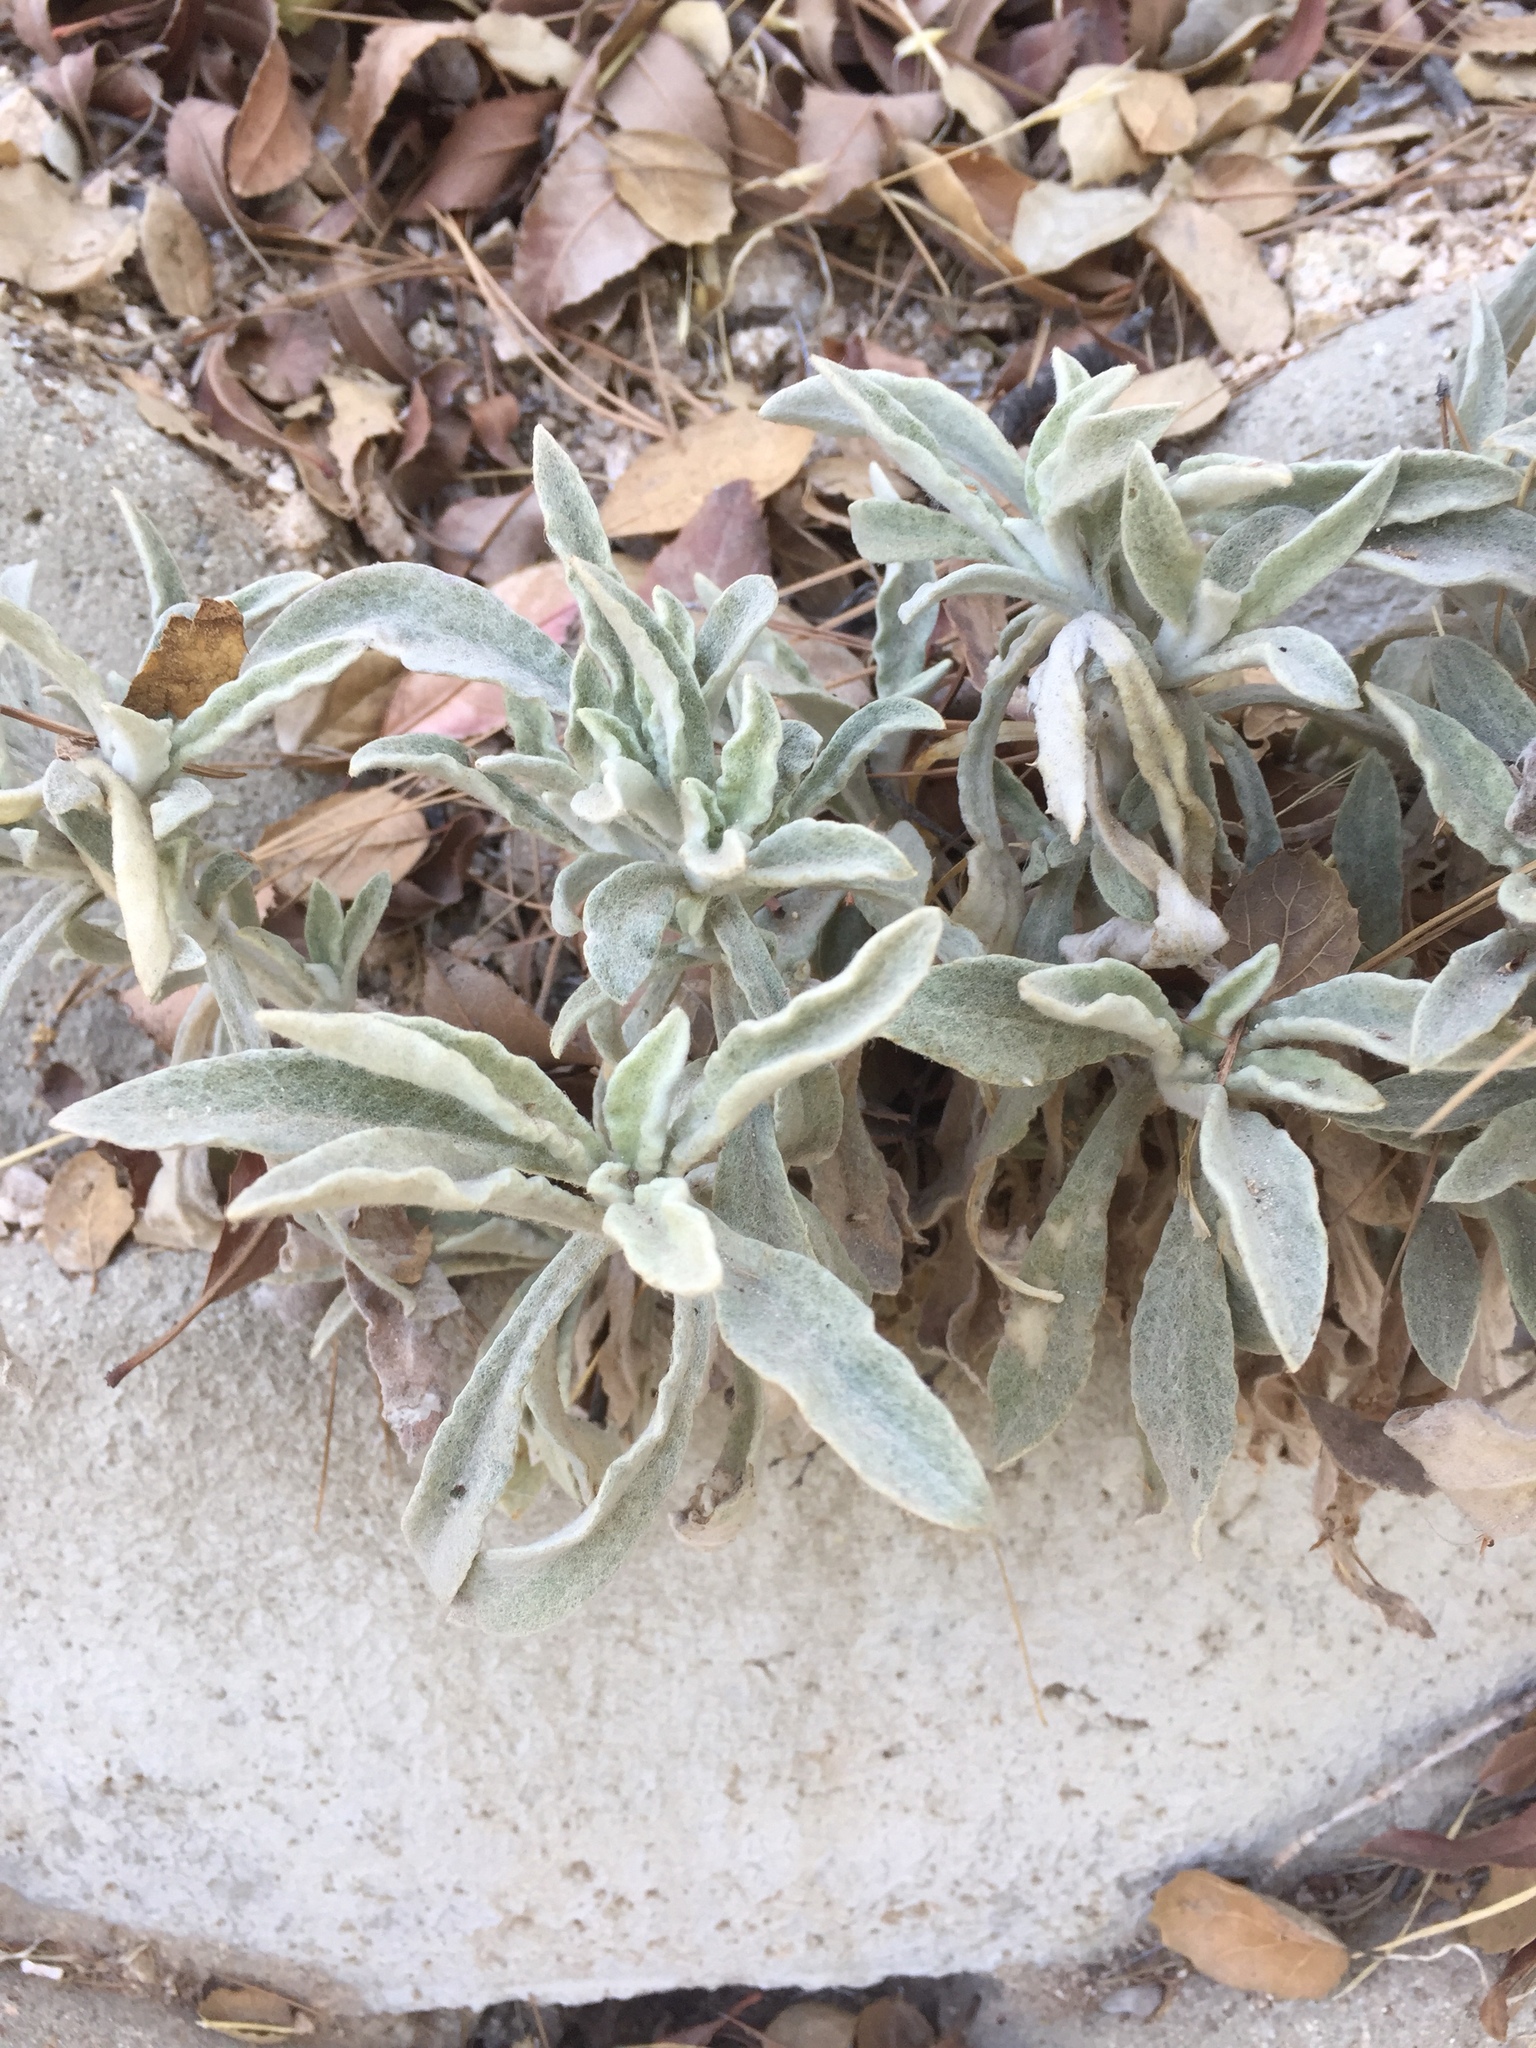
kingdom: Plantae
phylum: Tracheophyta
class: Magnoliopsida
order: Asterales
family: Asteraceae
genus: Pseudognaphalium
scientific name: Pseudognaphalium
